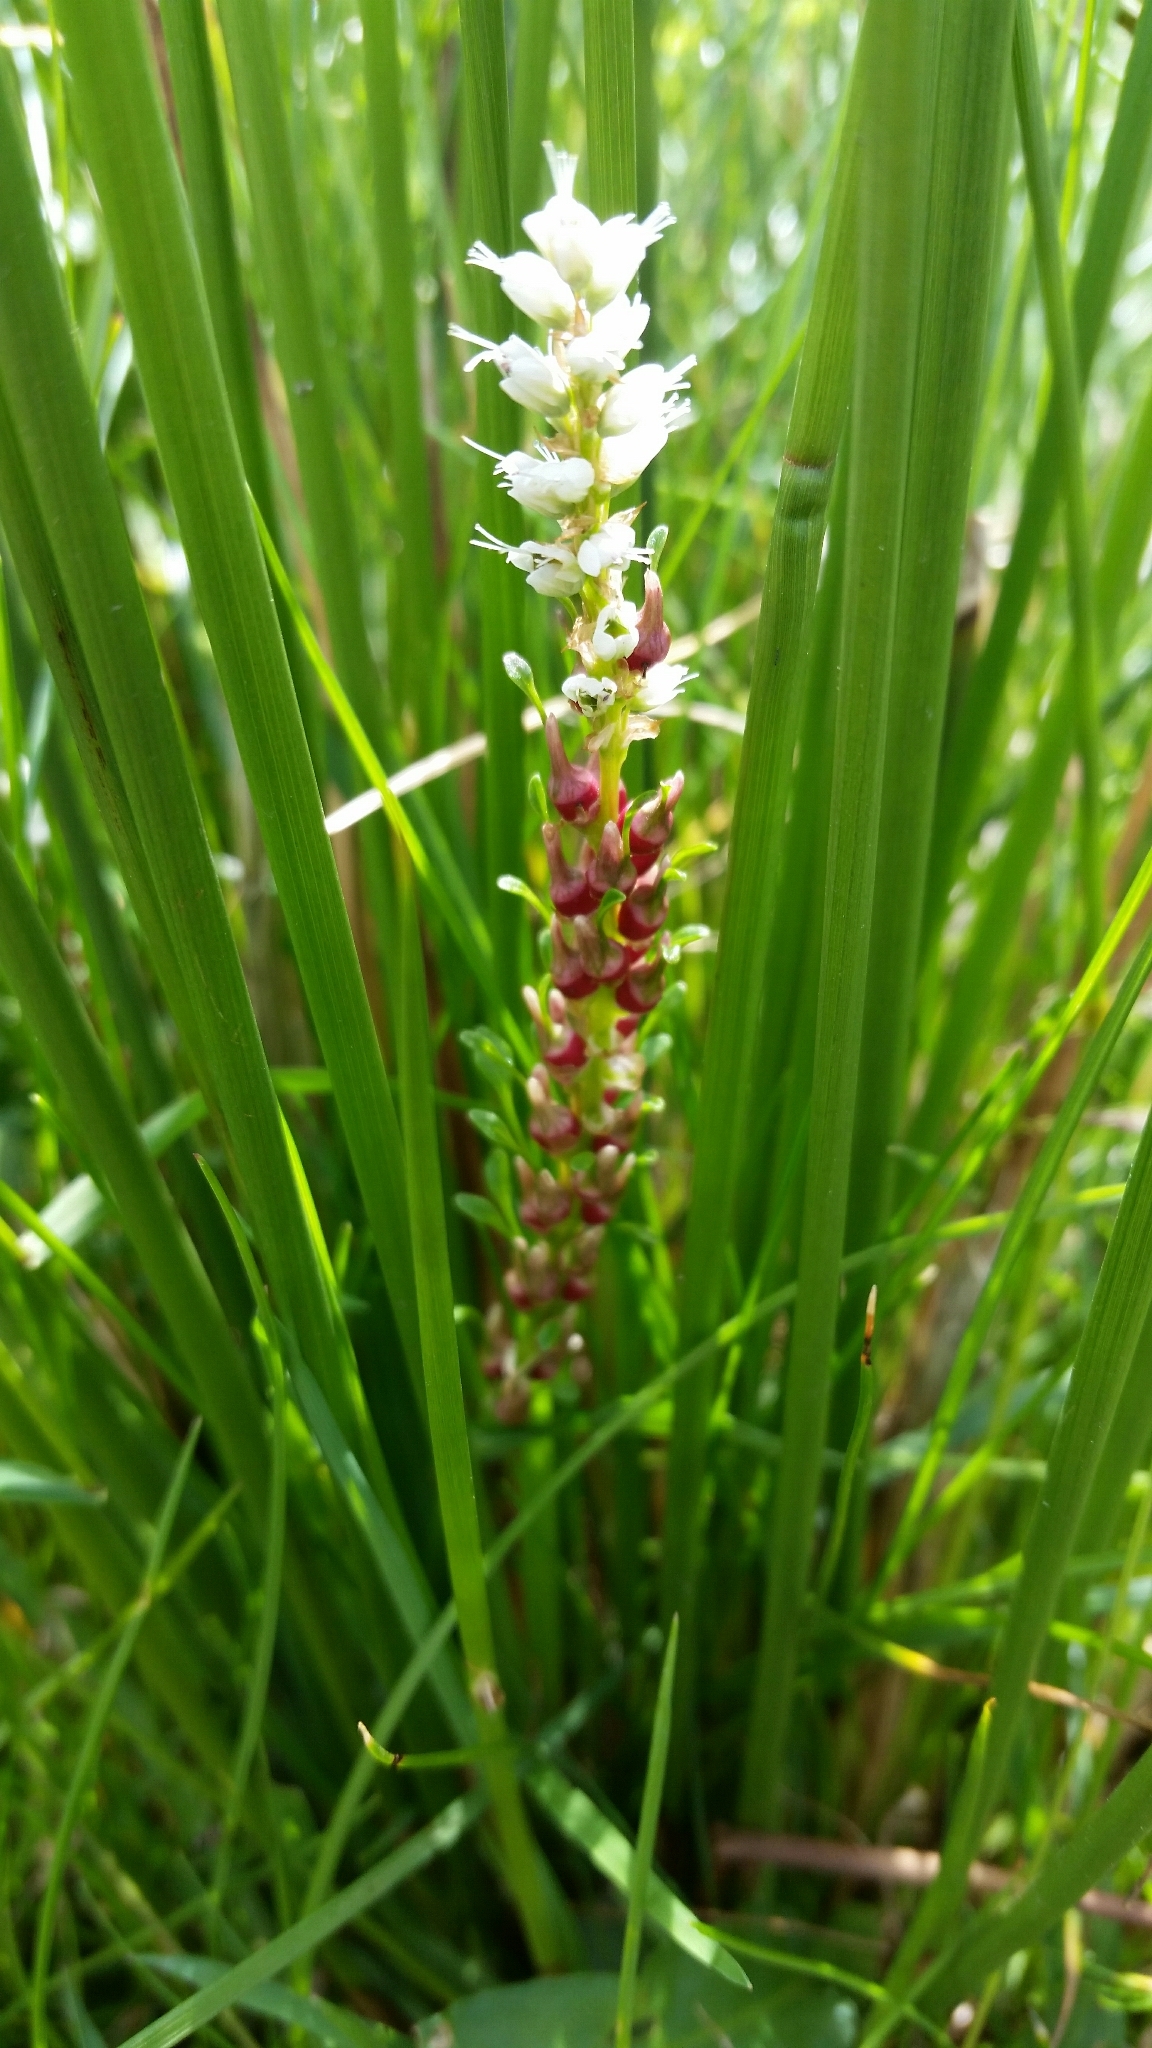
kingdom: Plantae
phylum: Tracheophyta
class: Magnoliopsida
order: Caryophyllales
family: Polygonaceae
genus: Bistorta
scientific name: Bistorta vivipara
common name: Alpine bistort
